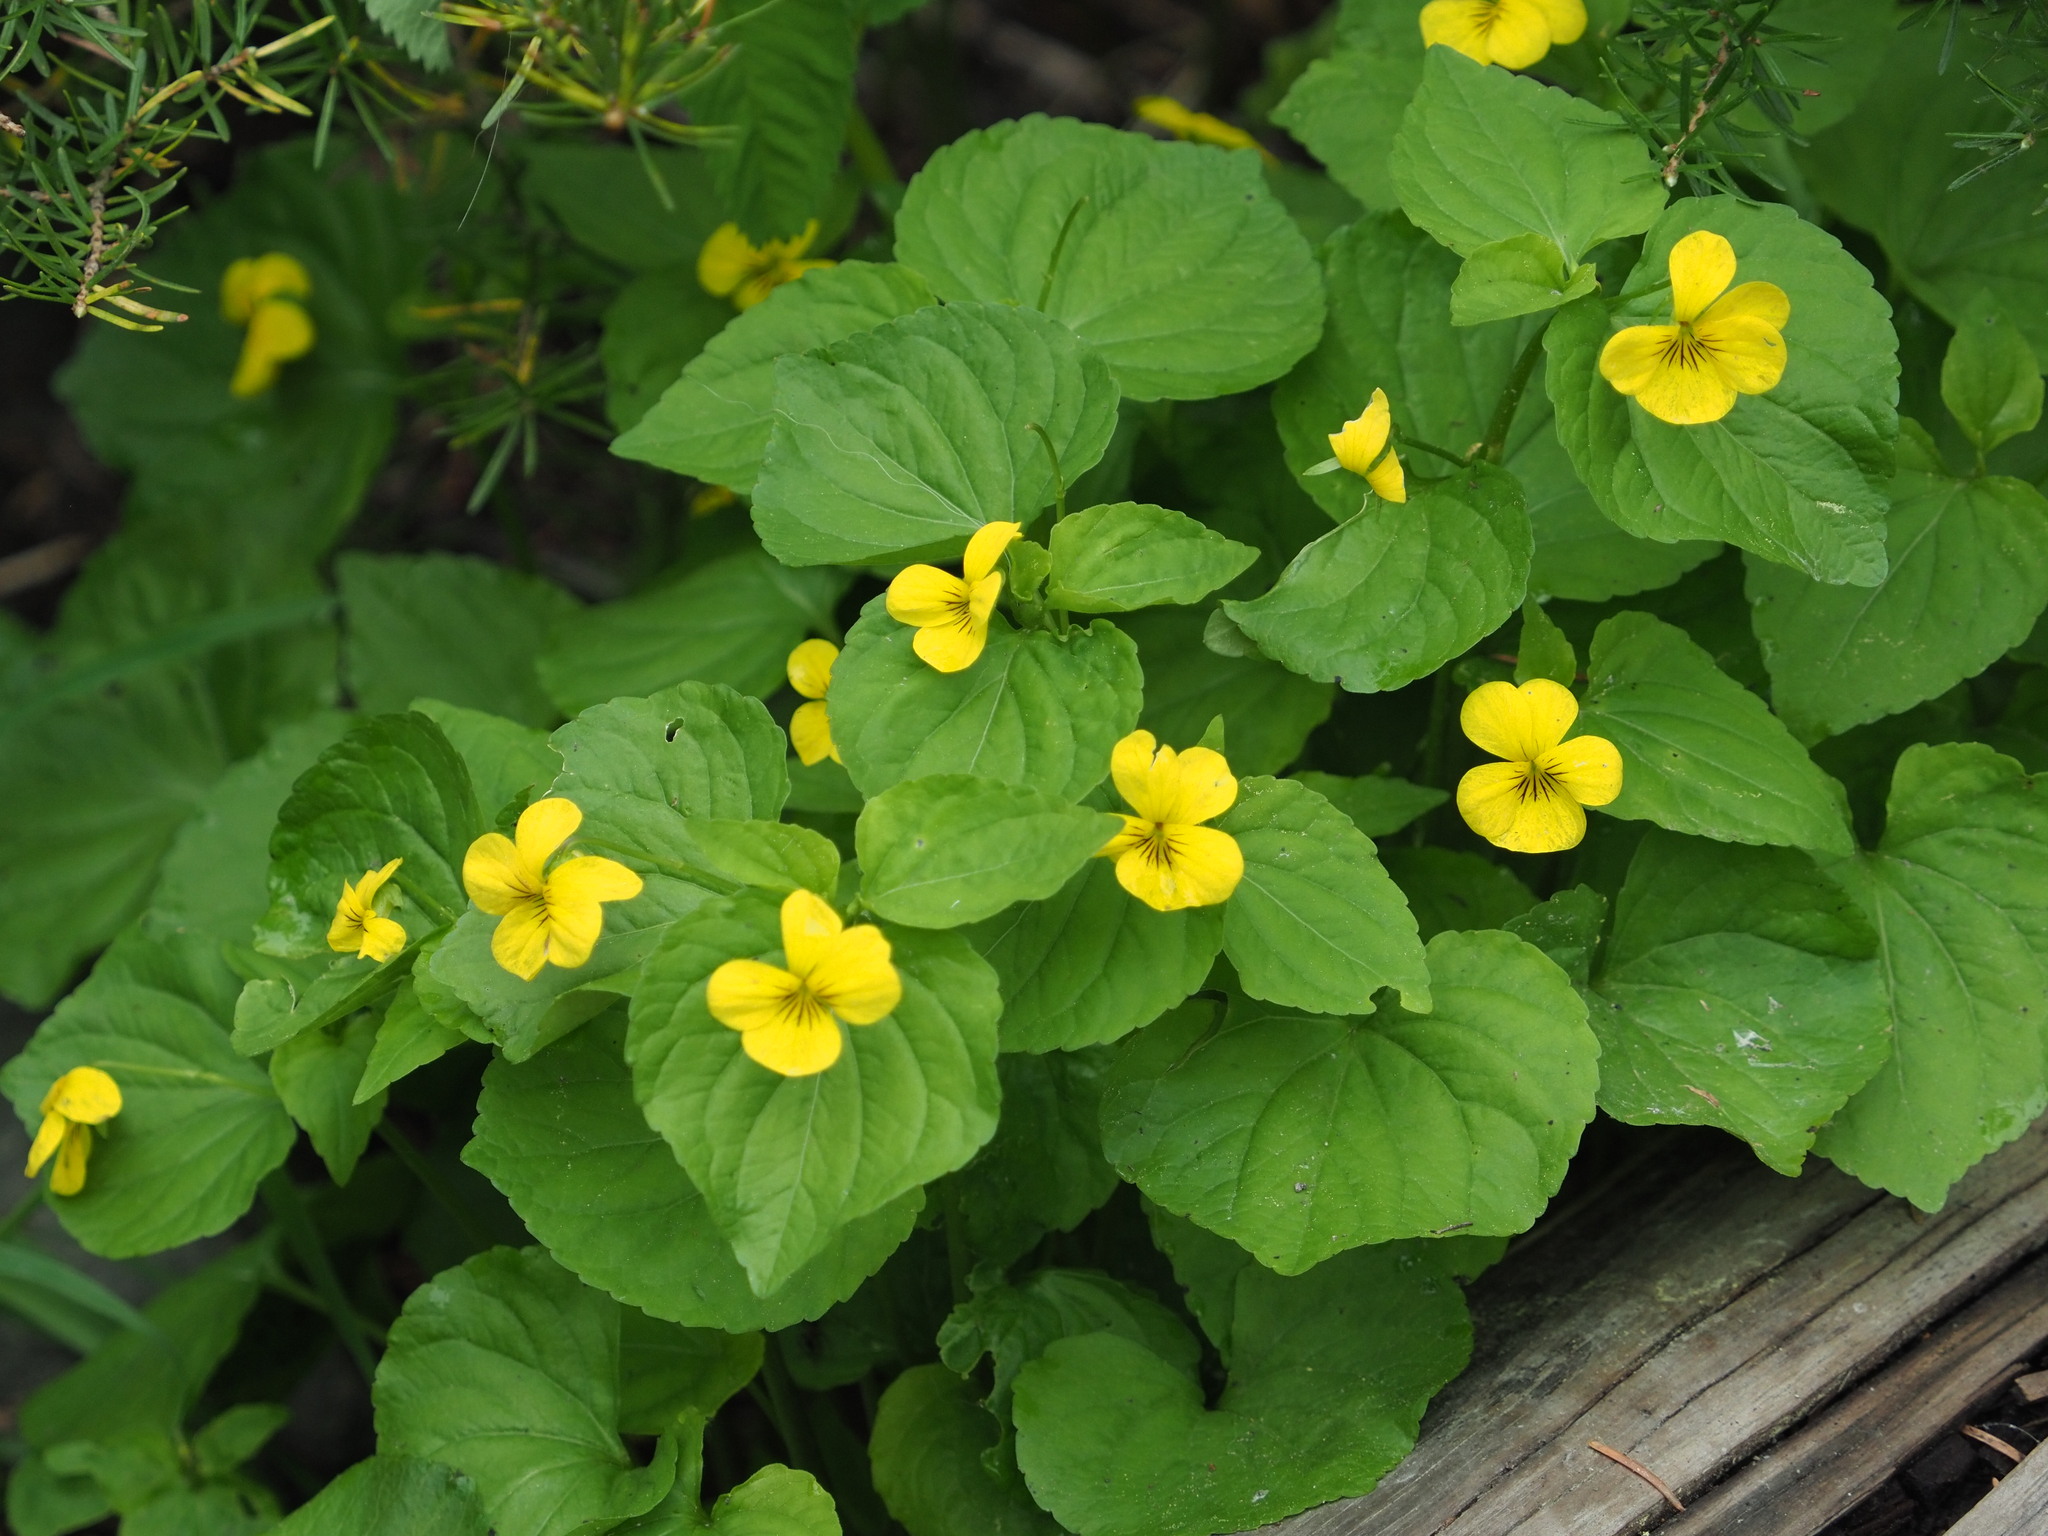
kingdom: Plantae
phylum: Tracheophyta
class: Magnoliopsida
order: Malpighiales
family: Violaceae
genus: Viola
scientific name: Viola glabella
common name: Stream violet
